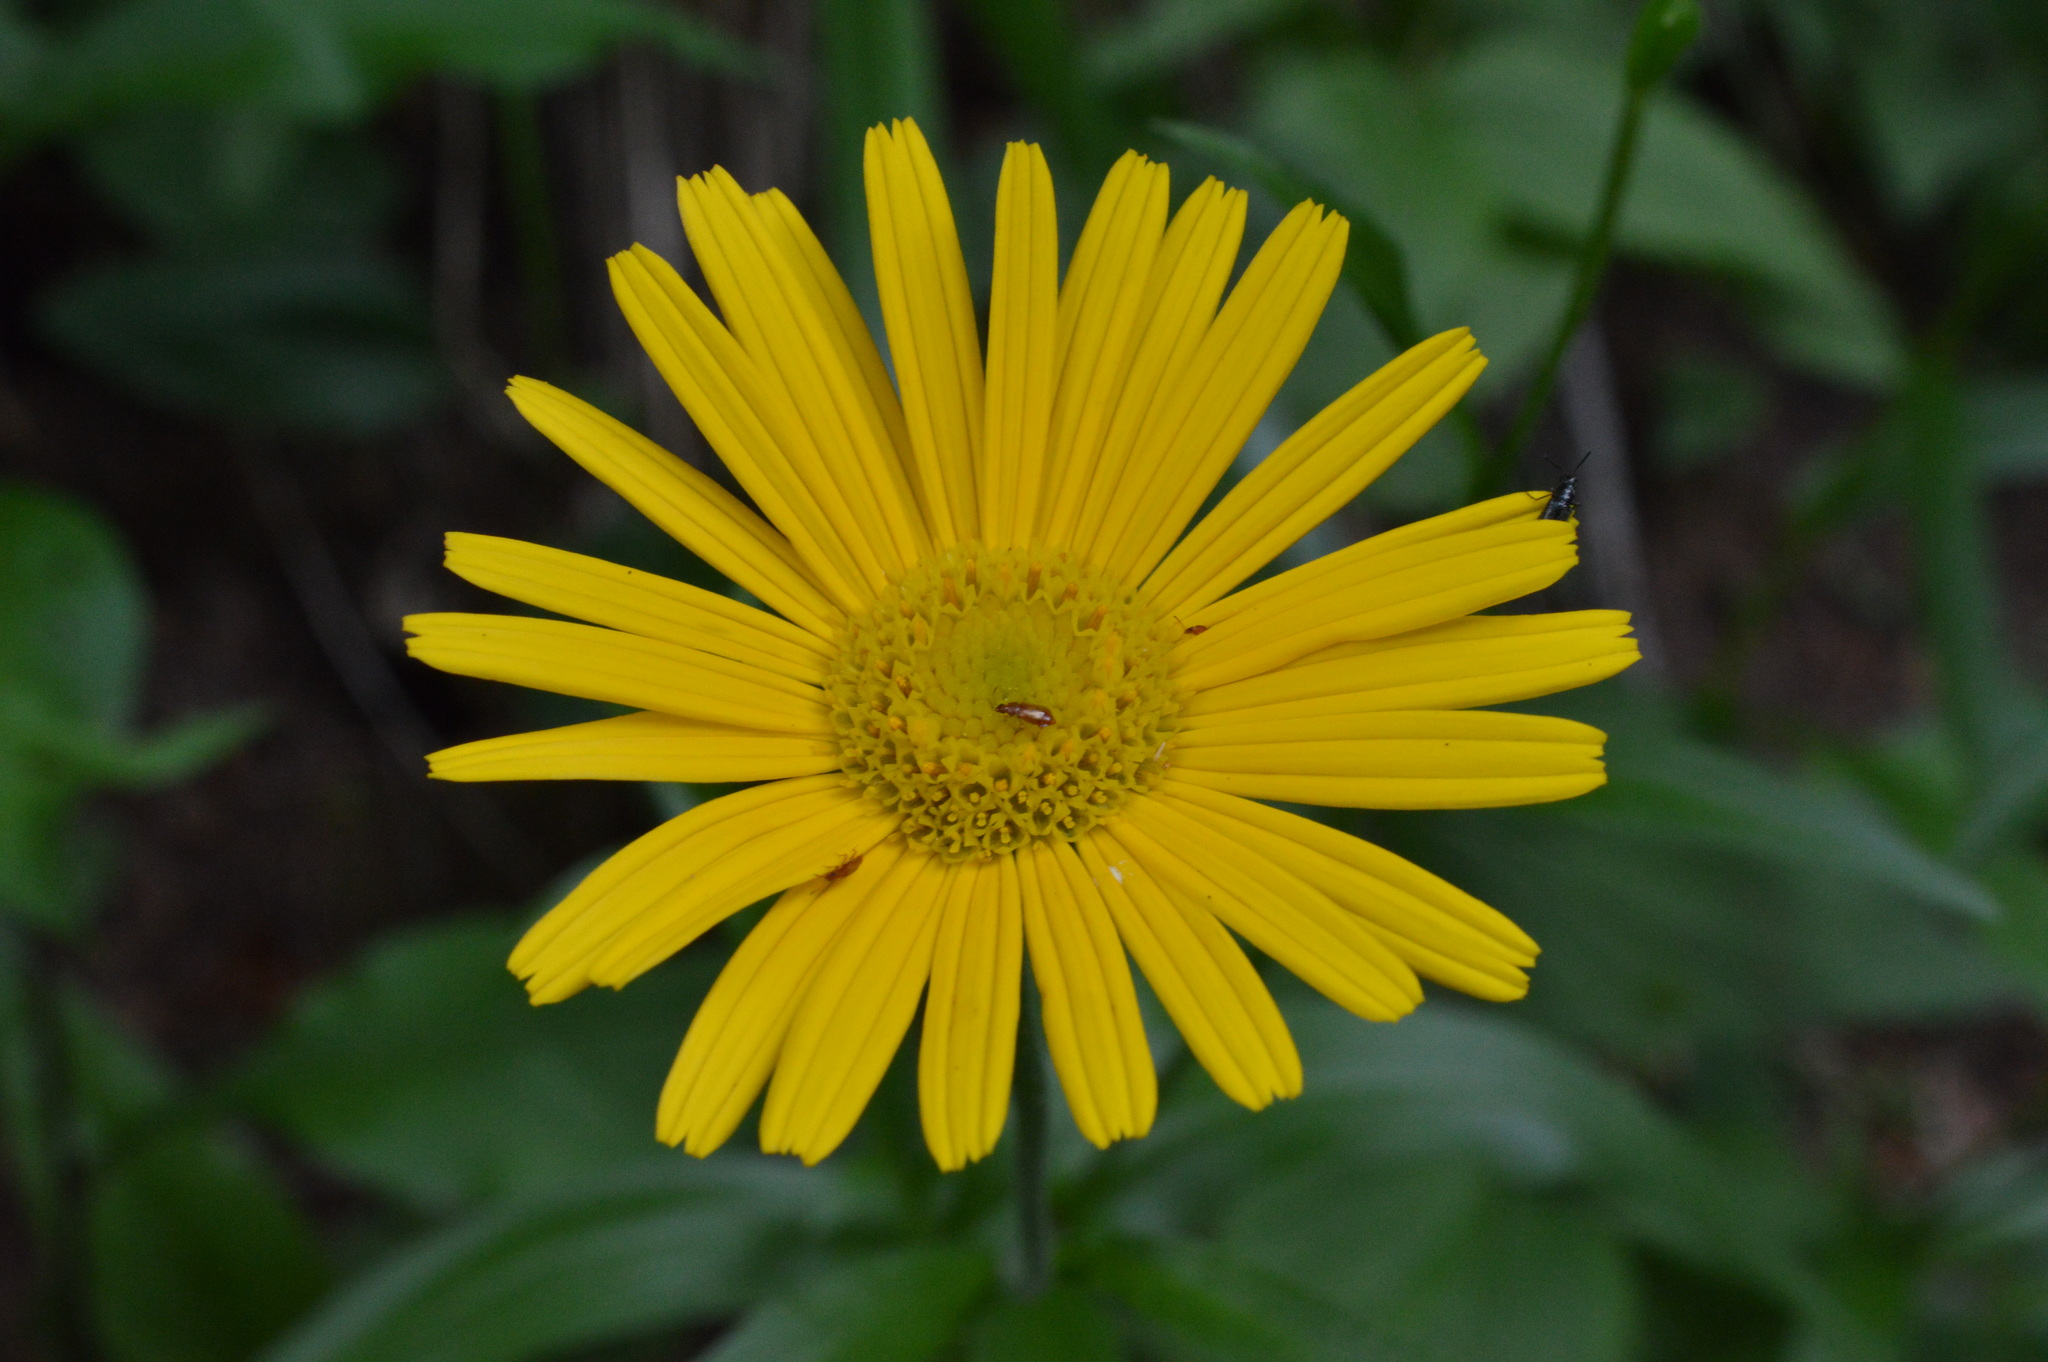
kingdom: Plantae
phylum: Tracheophyta
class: Magnoliopsida
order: Asterales
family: Asteraceae
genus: Buphthalmum
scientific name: Buphthalmum salicifolium
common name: Willow-leaved yellow-oxeye
